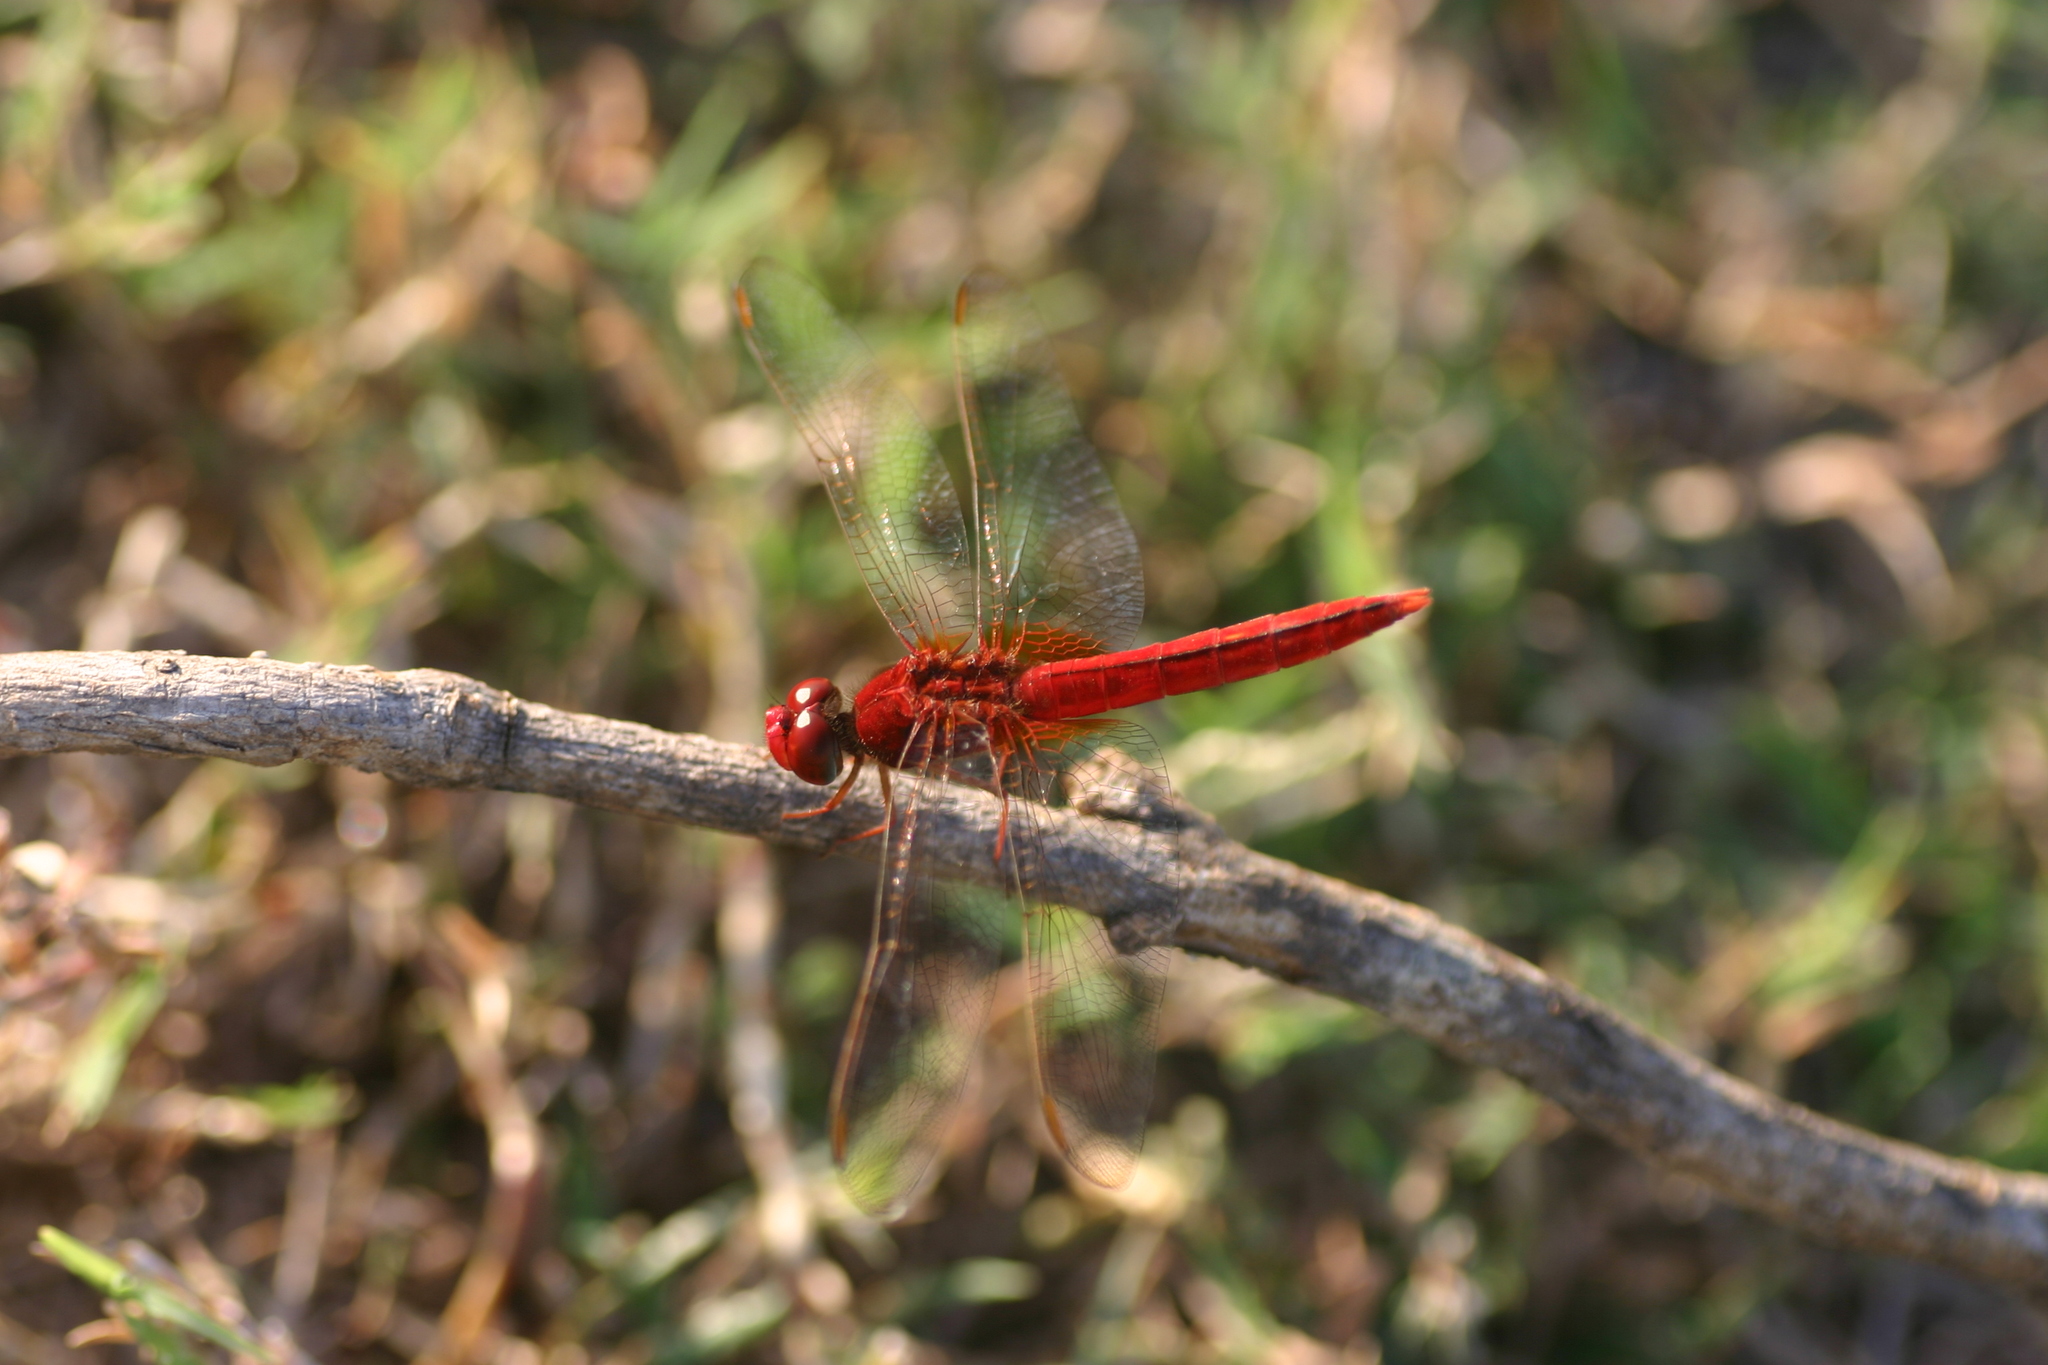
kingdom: Animalia
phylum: Arthropoda
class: Insecta
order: Odonata
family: Libellulidae
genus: Crocothemis
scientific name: Crocothemis servilia
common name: Scarlet skimmer
